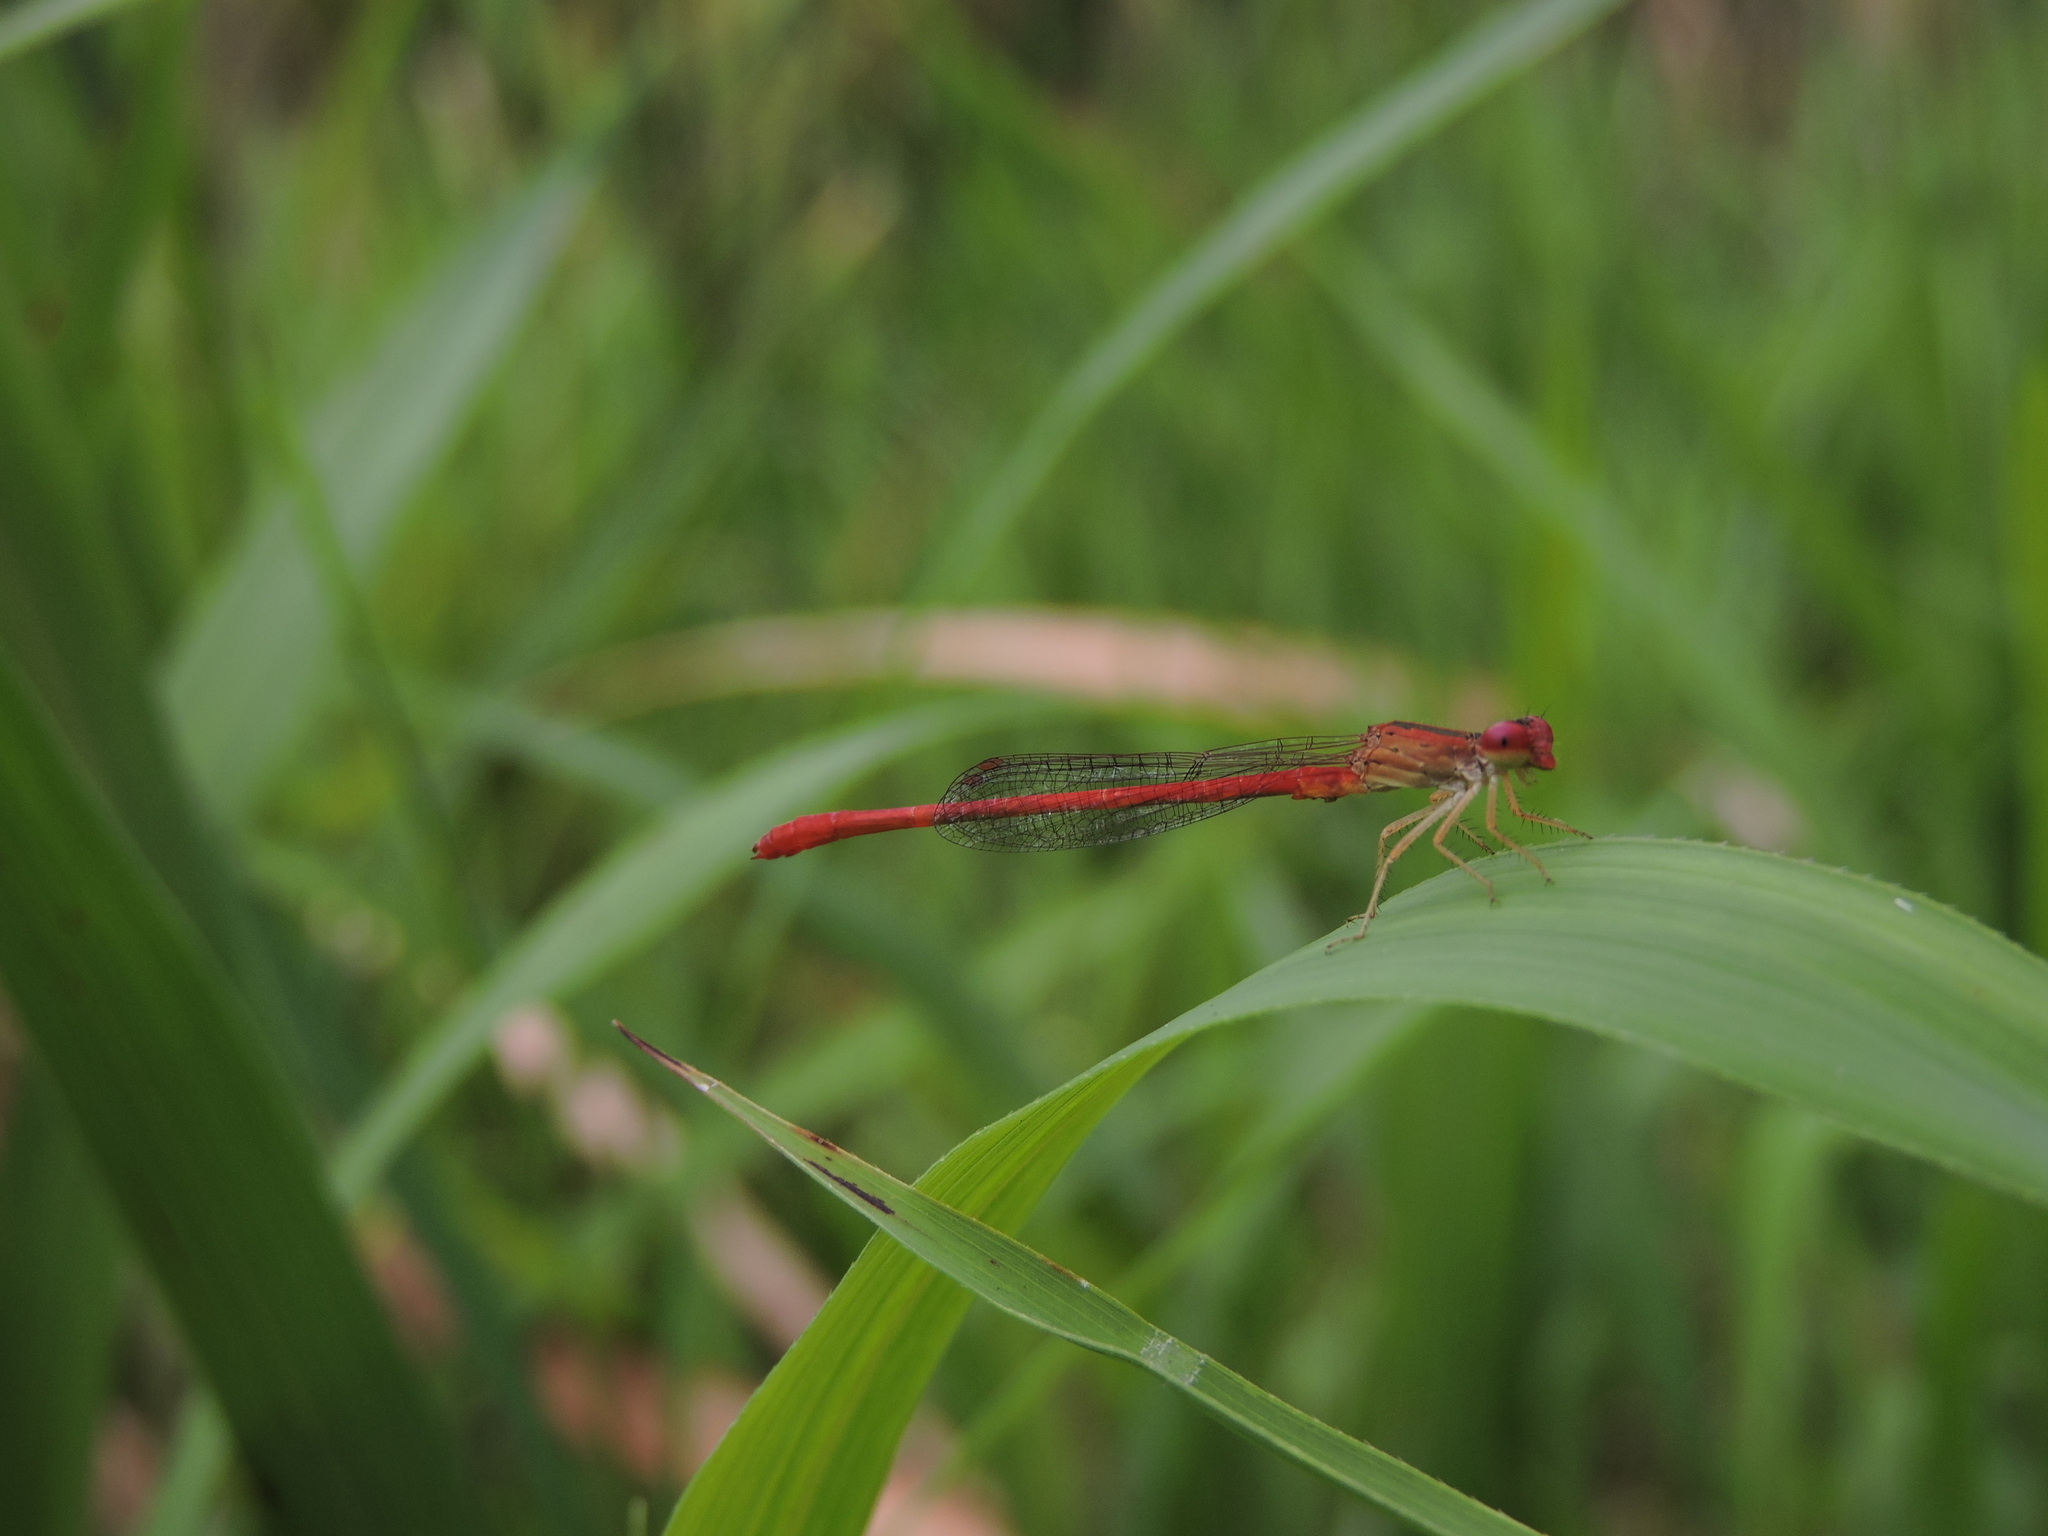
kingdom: Animalia
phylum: Arthropoda
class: Insecta
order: Odonata
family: Coenagrionidae
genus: Telebasis
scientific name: Telebasis salva
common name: Desert firetail
